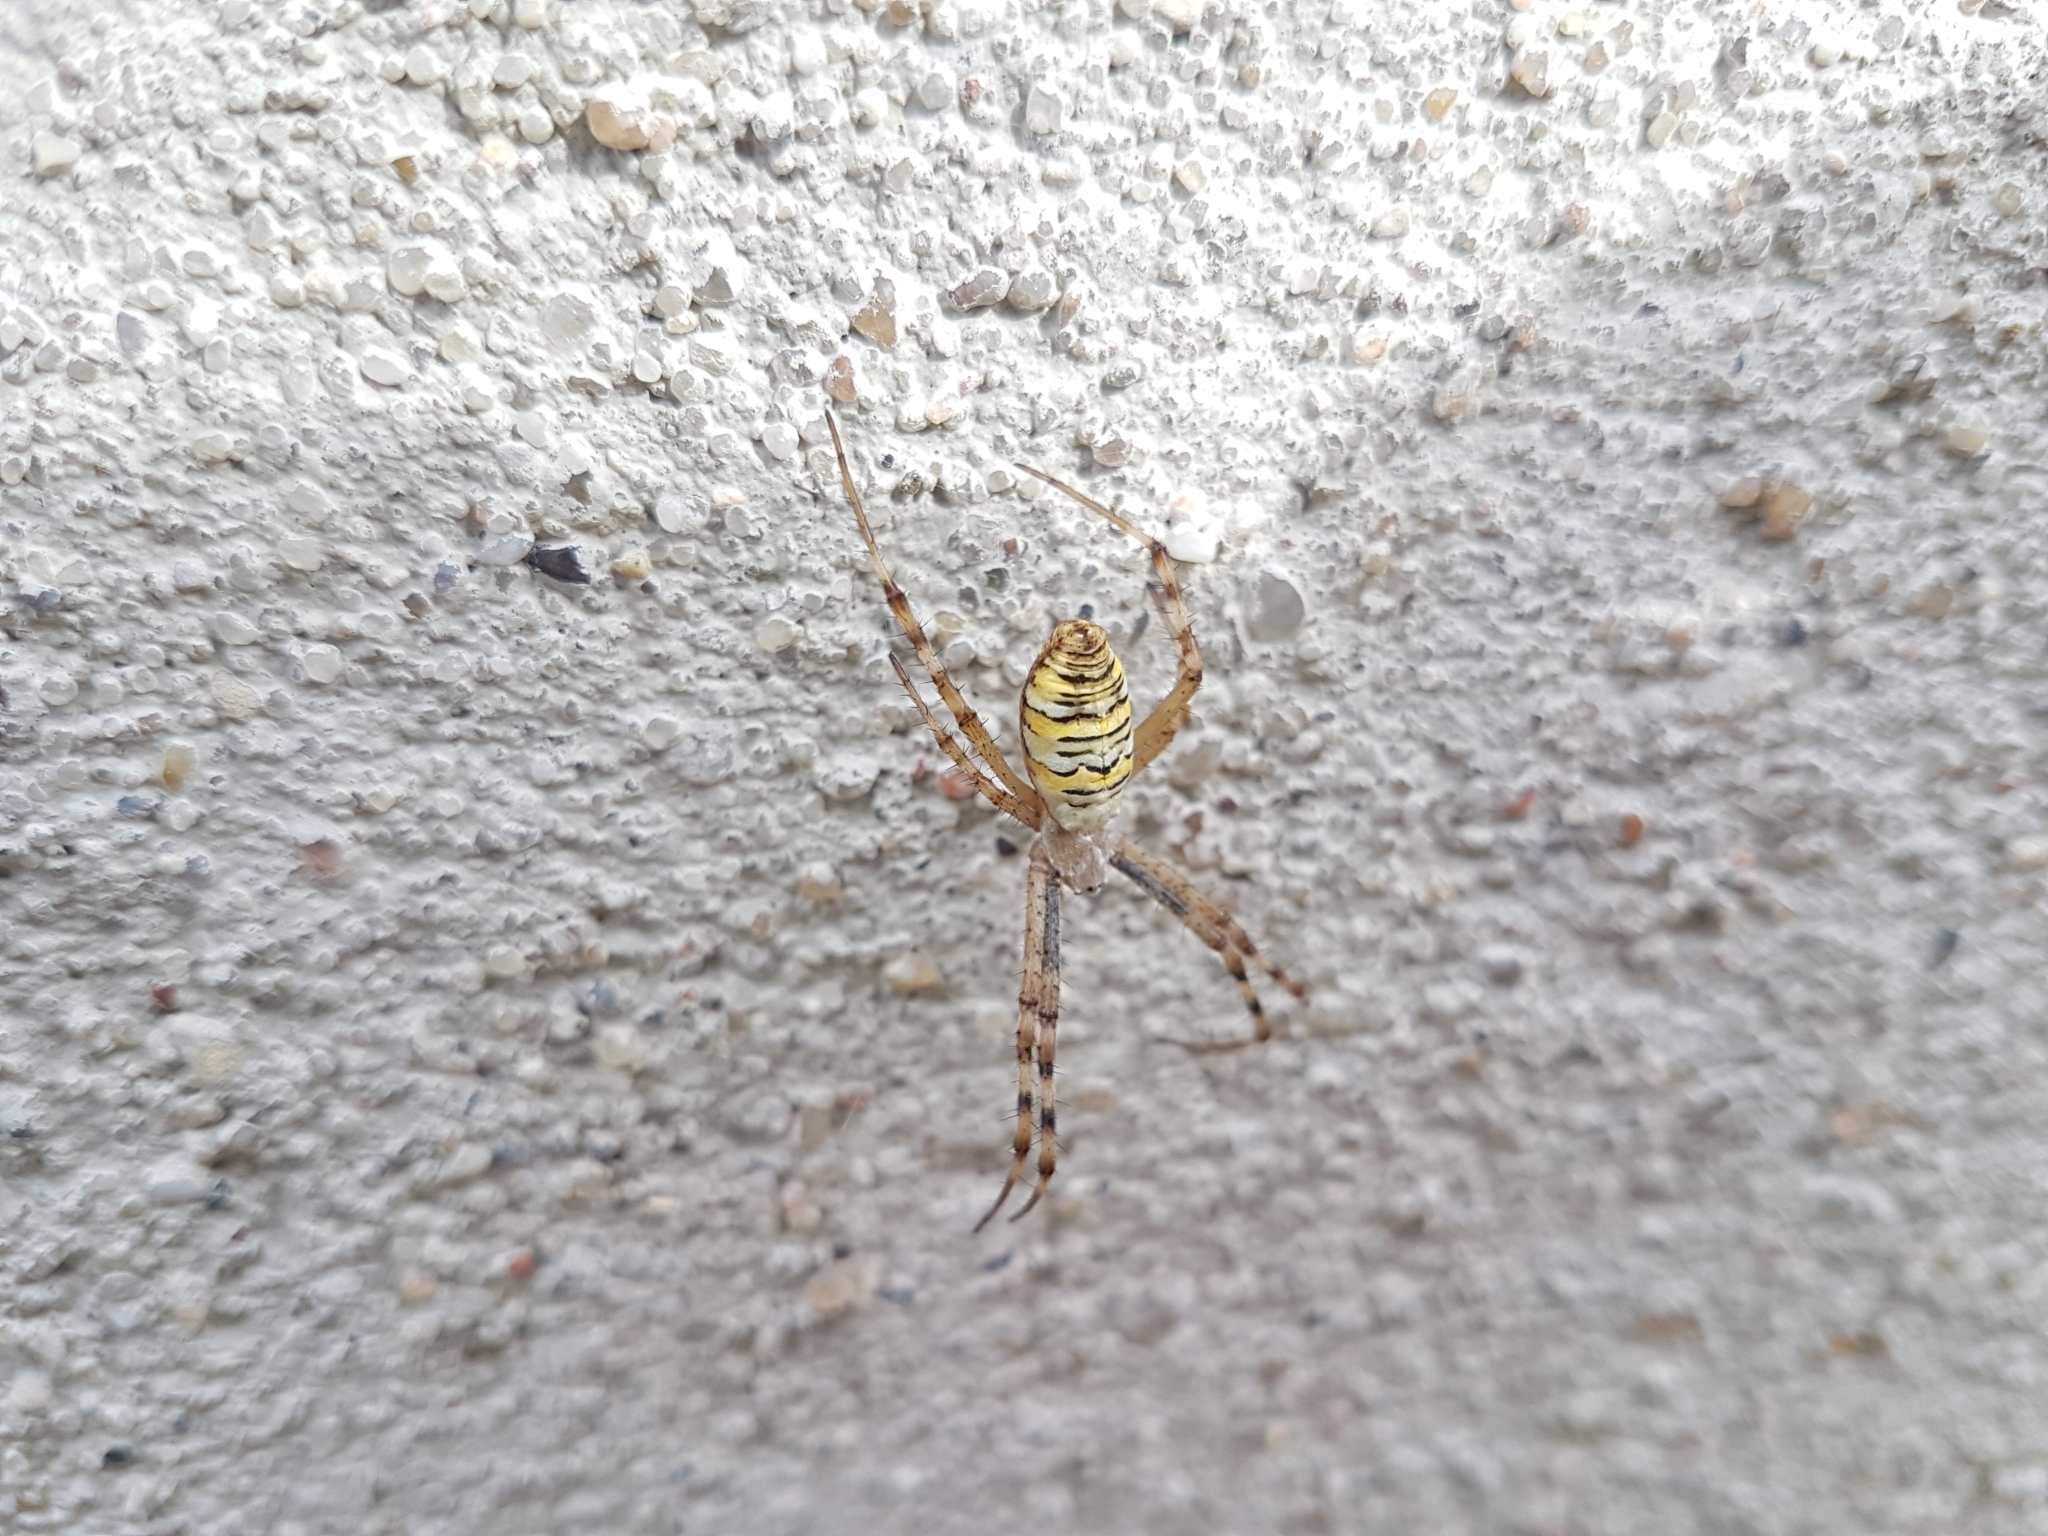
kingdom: Animalia
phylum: Arthropoda
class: Arachnida
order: Araneae
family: Araneidae
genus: Argiope
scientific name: Argiope bruennichi
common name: Wasp spider
